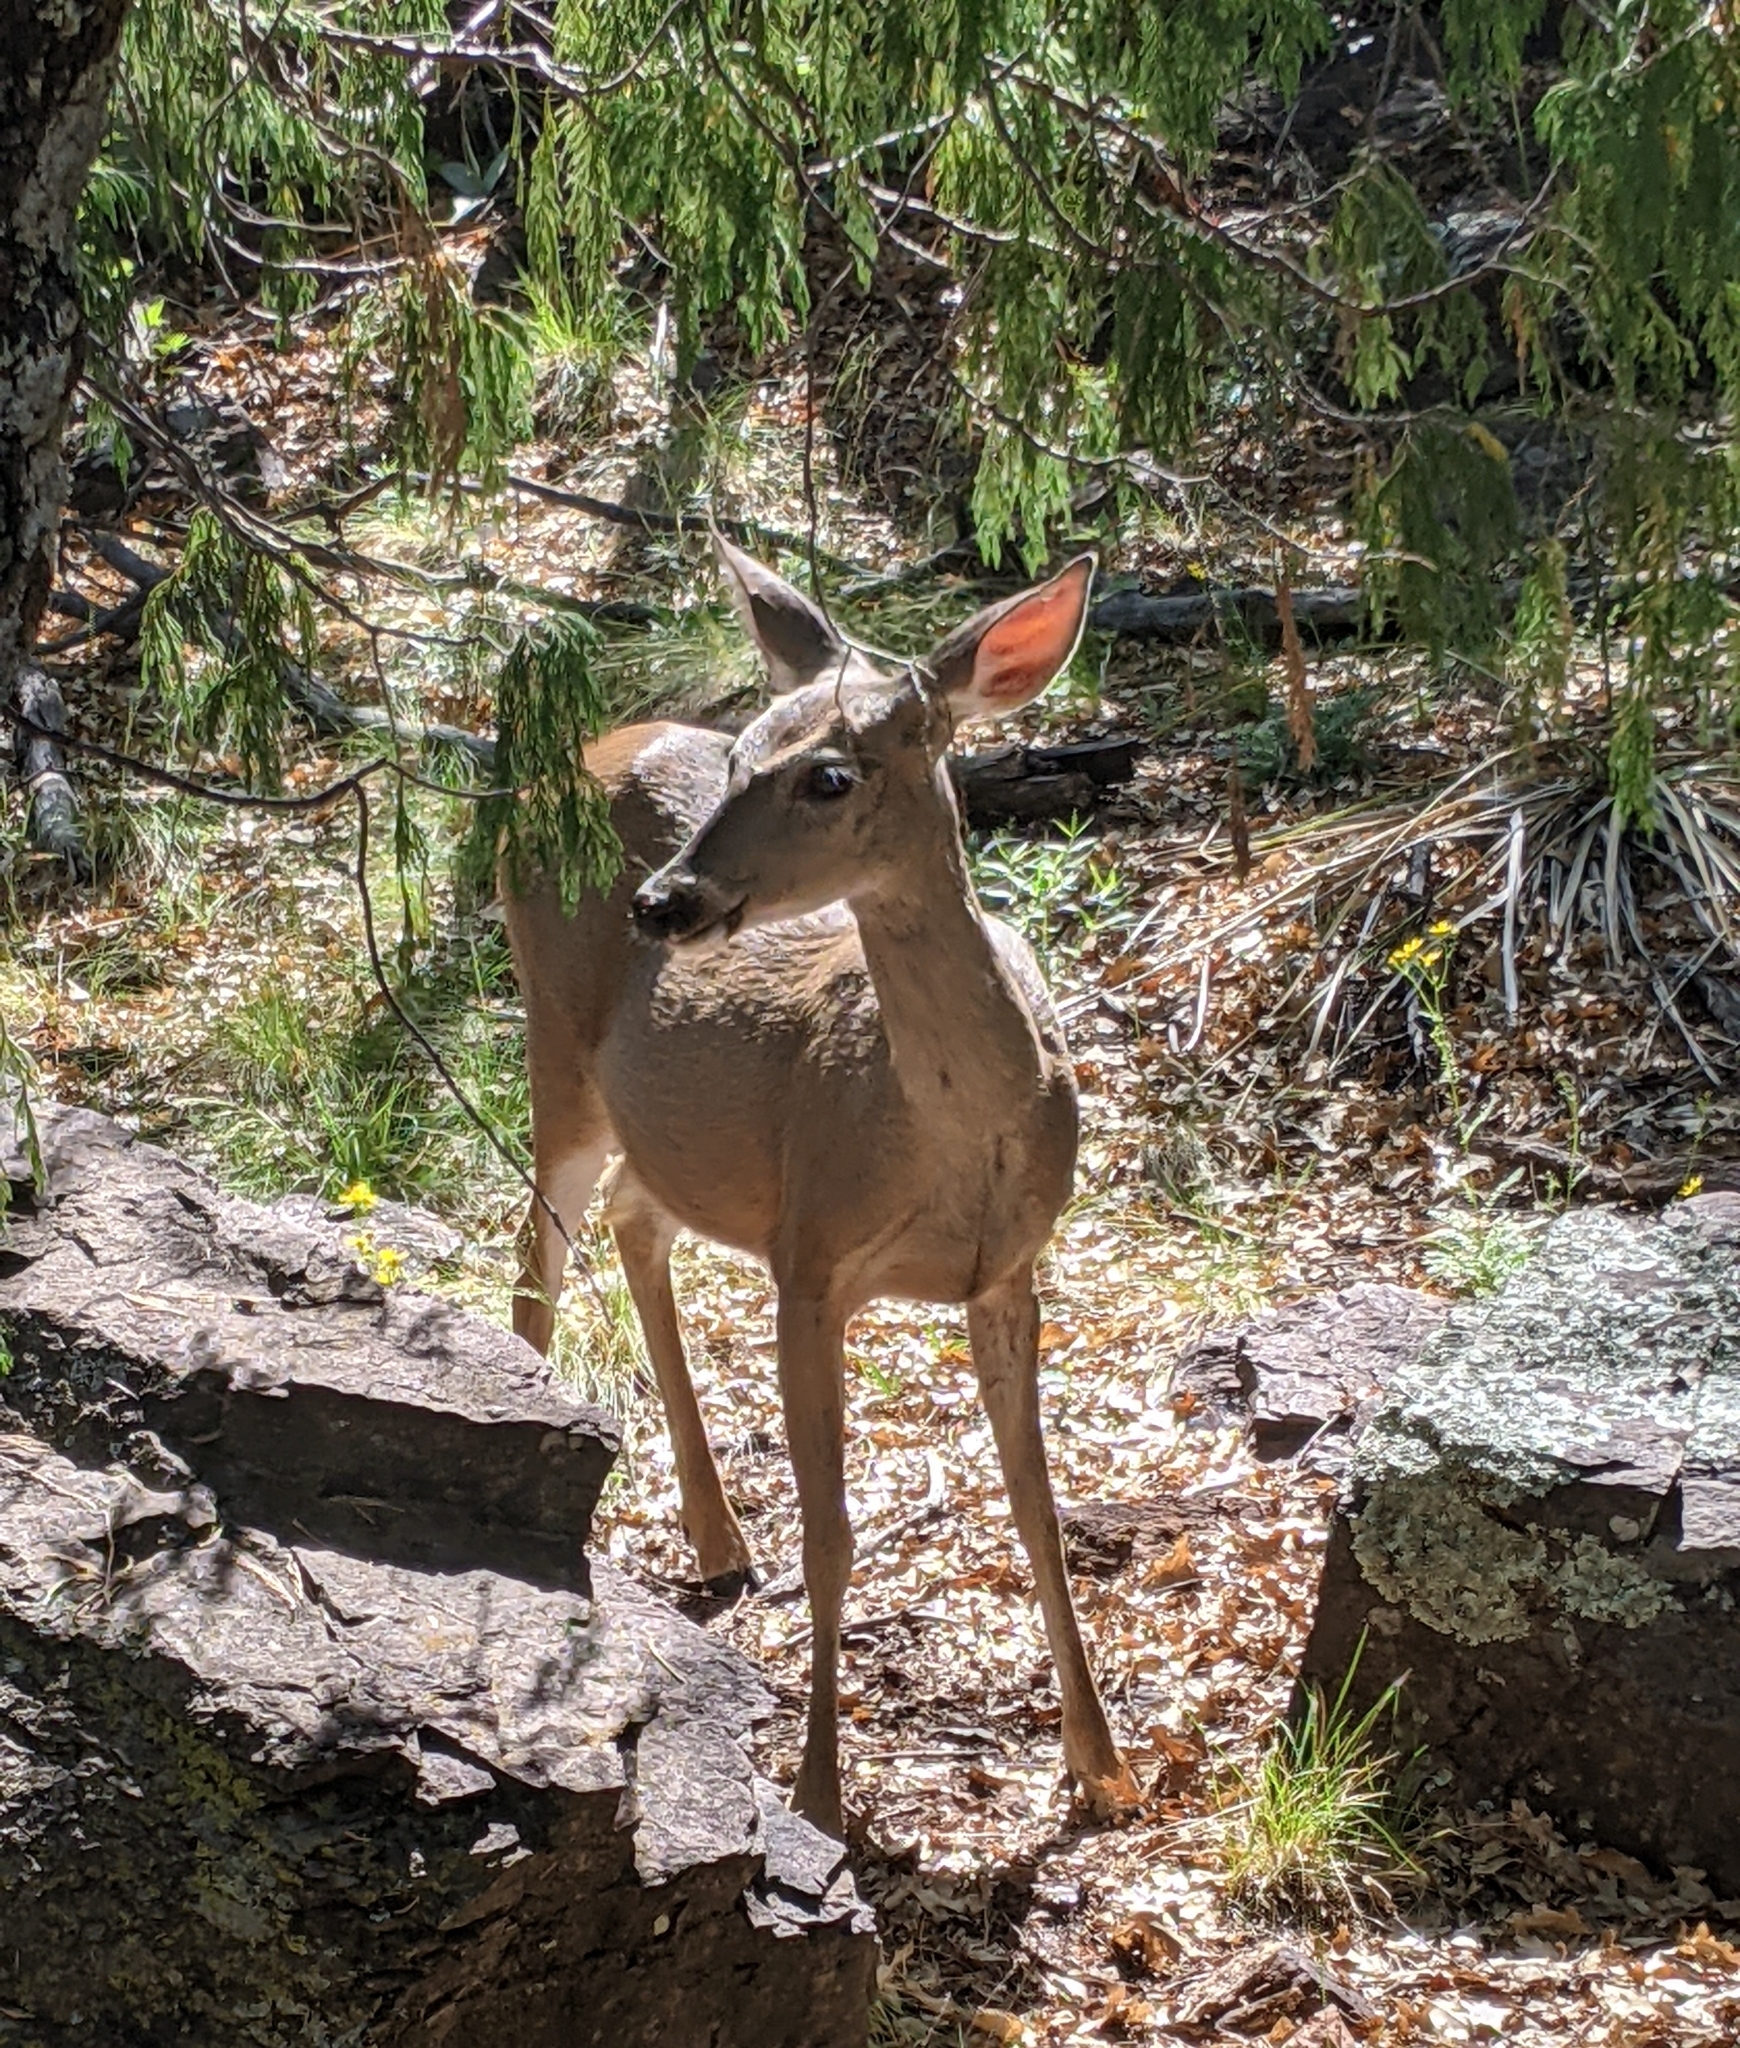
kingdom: Animalia
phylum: Chordata
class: Mammalia
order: Artiodactyla
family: Cervidae
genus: Odocoileus
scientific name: Odocoileus virginianus
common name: White-tailed deer
